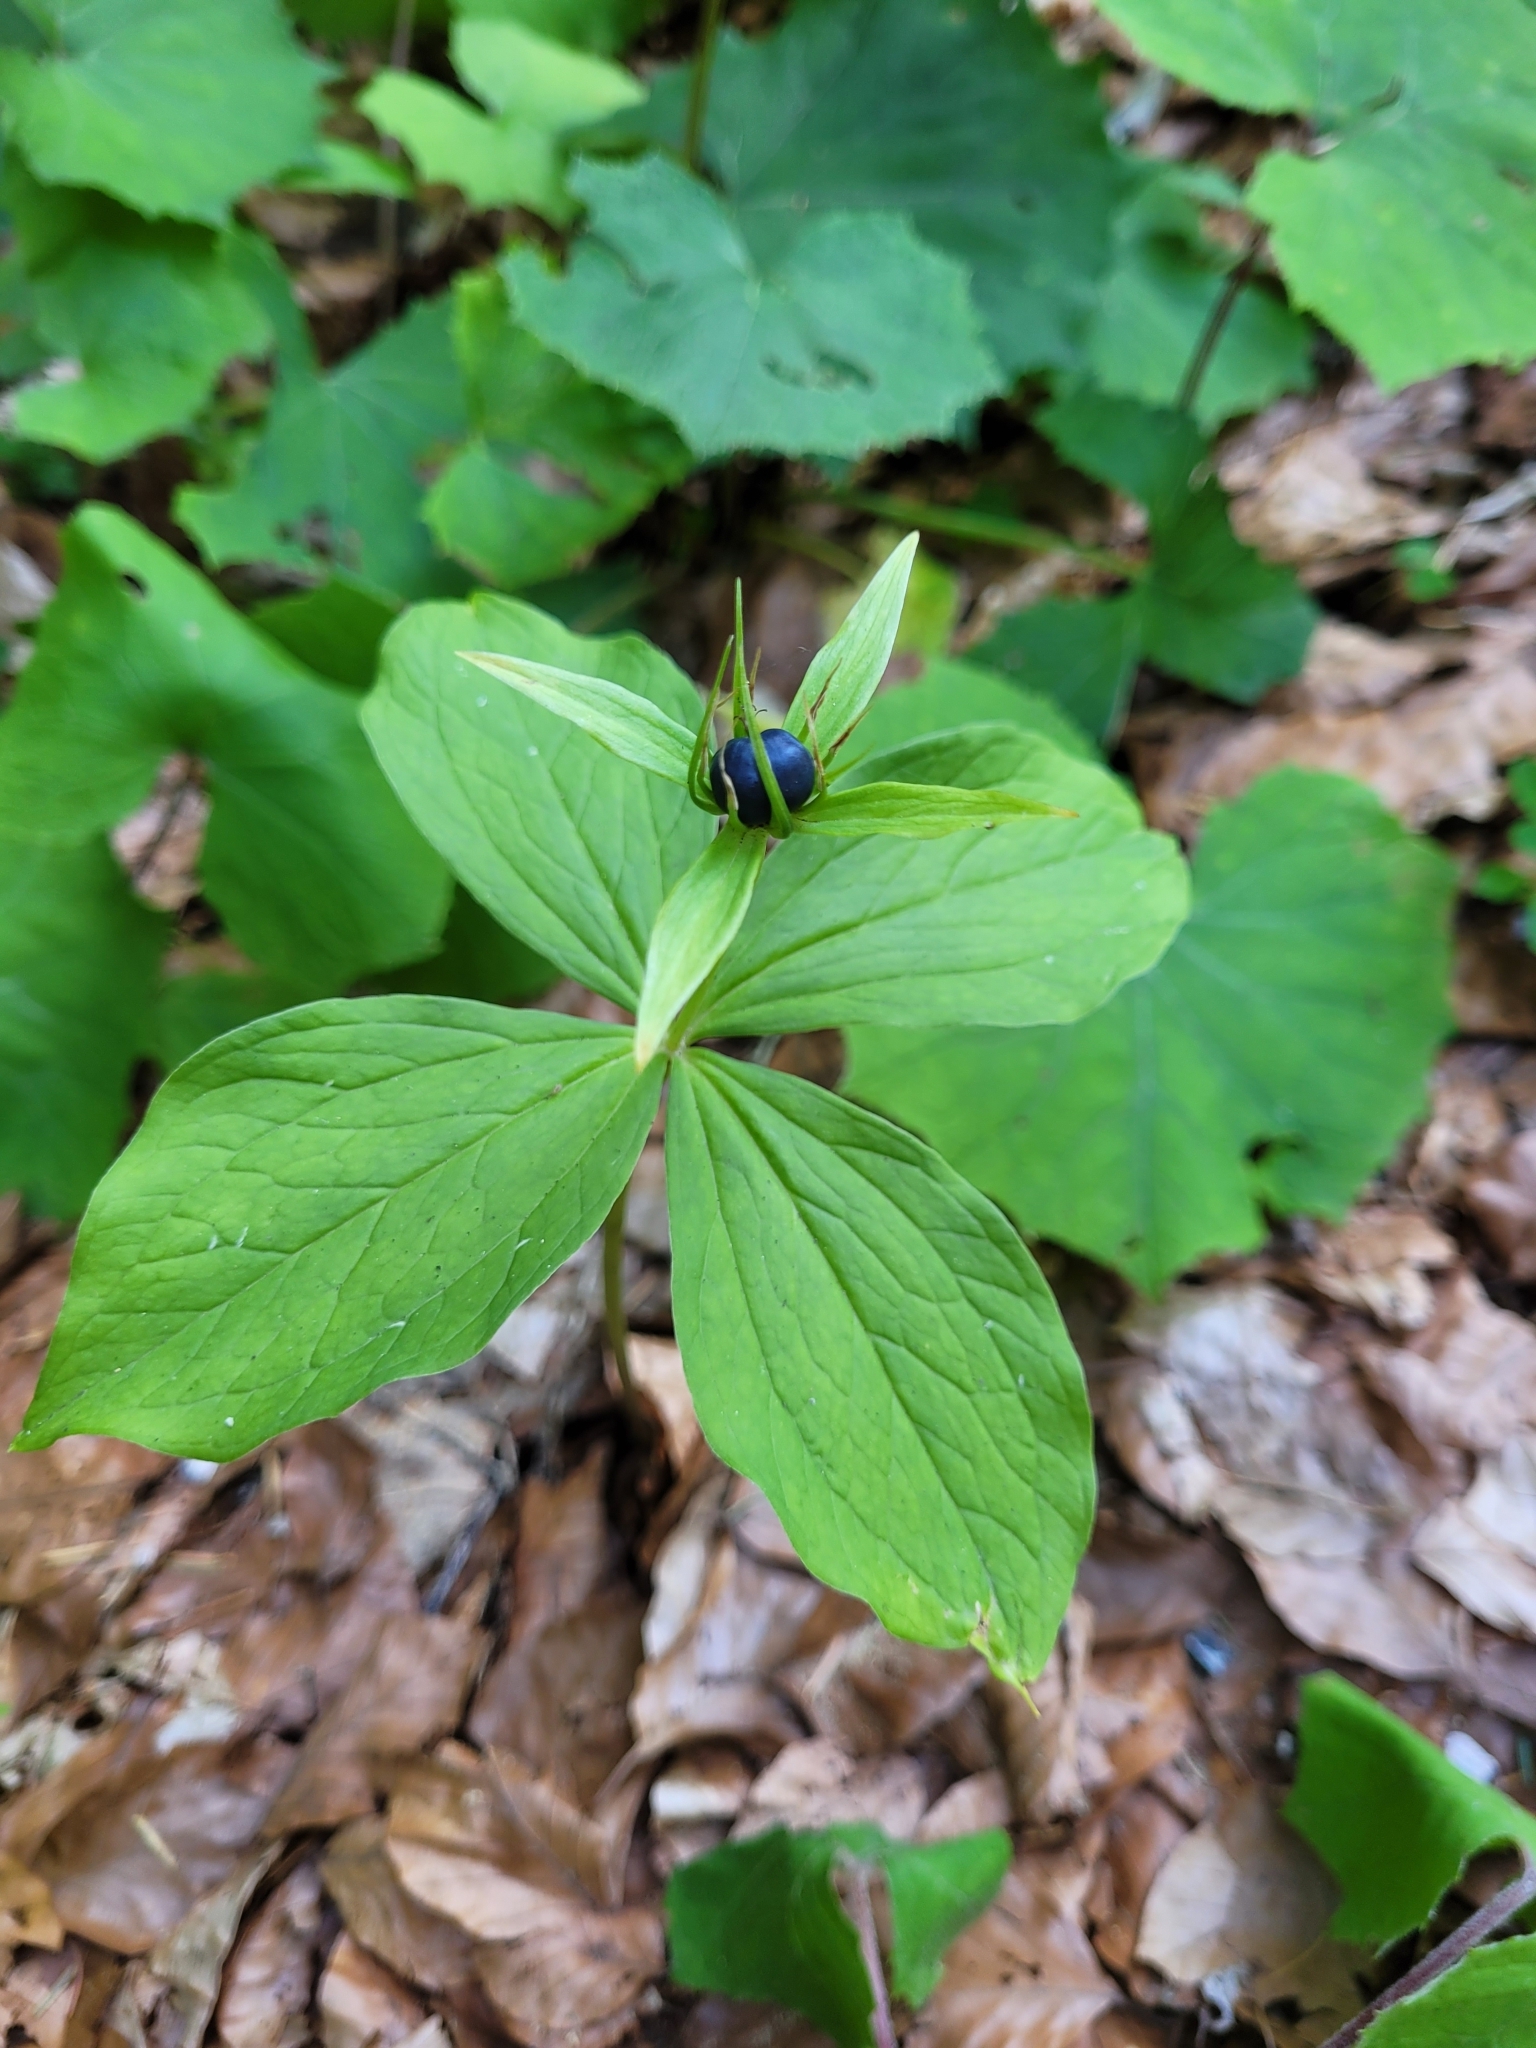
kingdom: Plantae
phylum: Tracheophyta
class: Liliopsida
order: Liliales
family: Melanthiaceae
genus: Paris
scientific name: Paris quadrifolia
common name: Herb-paris
